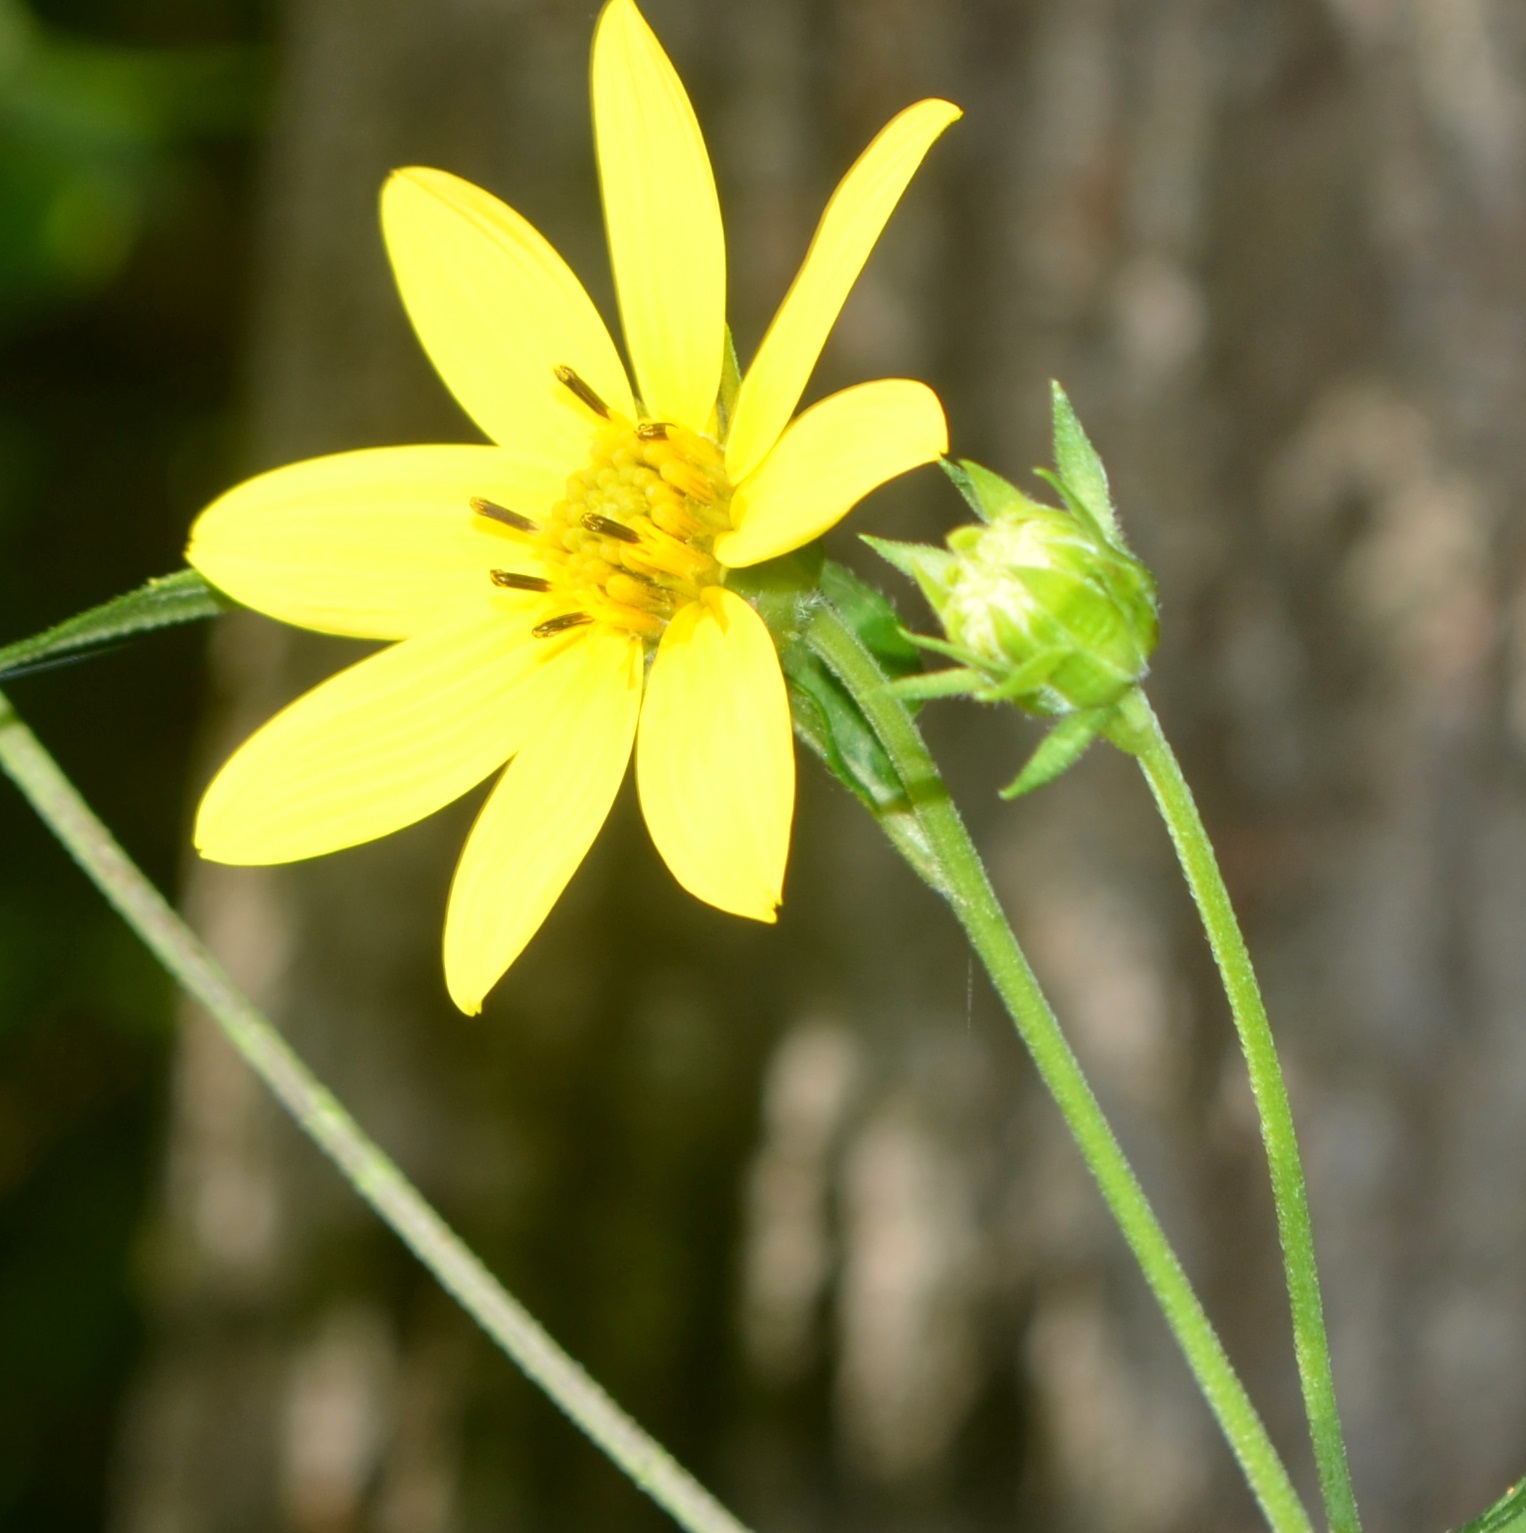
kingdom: Plantae
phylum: Tracheophyta
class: Magnoliopsida
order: Asterales
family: Asteraceae
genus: Helianthus
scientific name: Helianthus tuberosus
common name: Jerusalem artichoke
